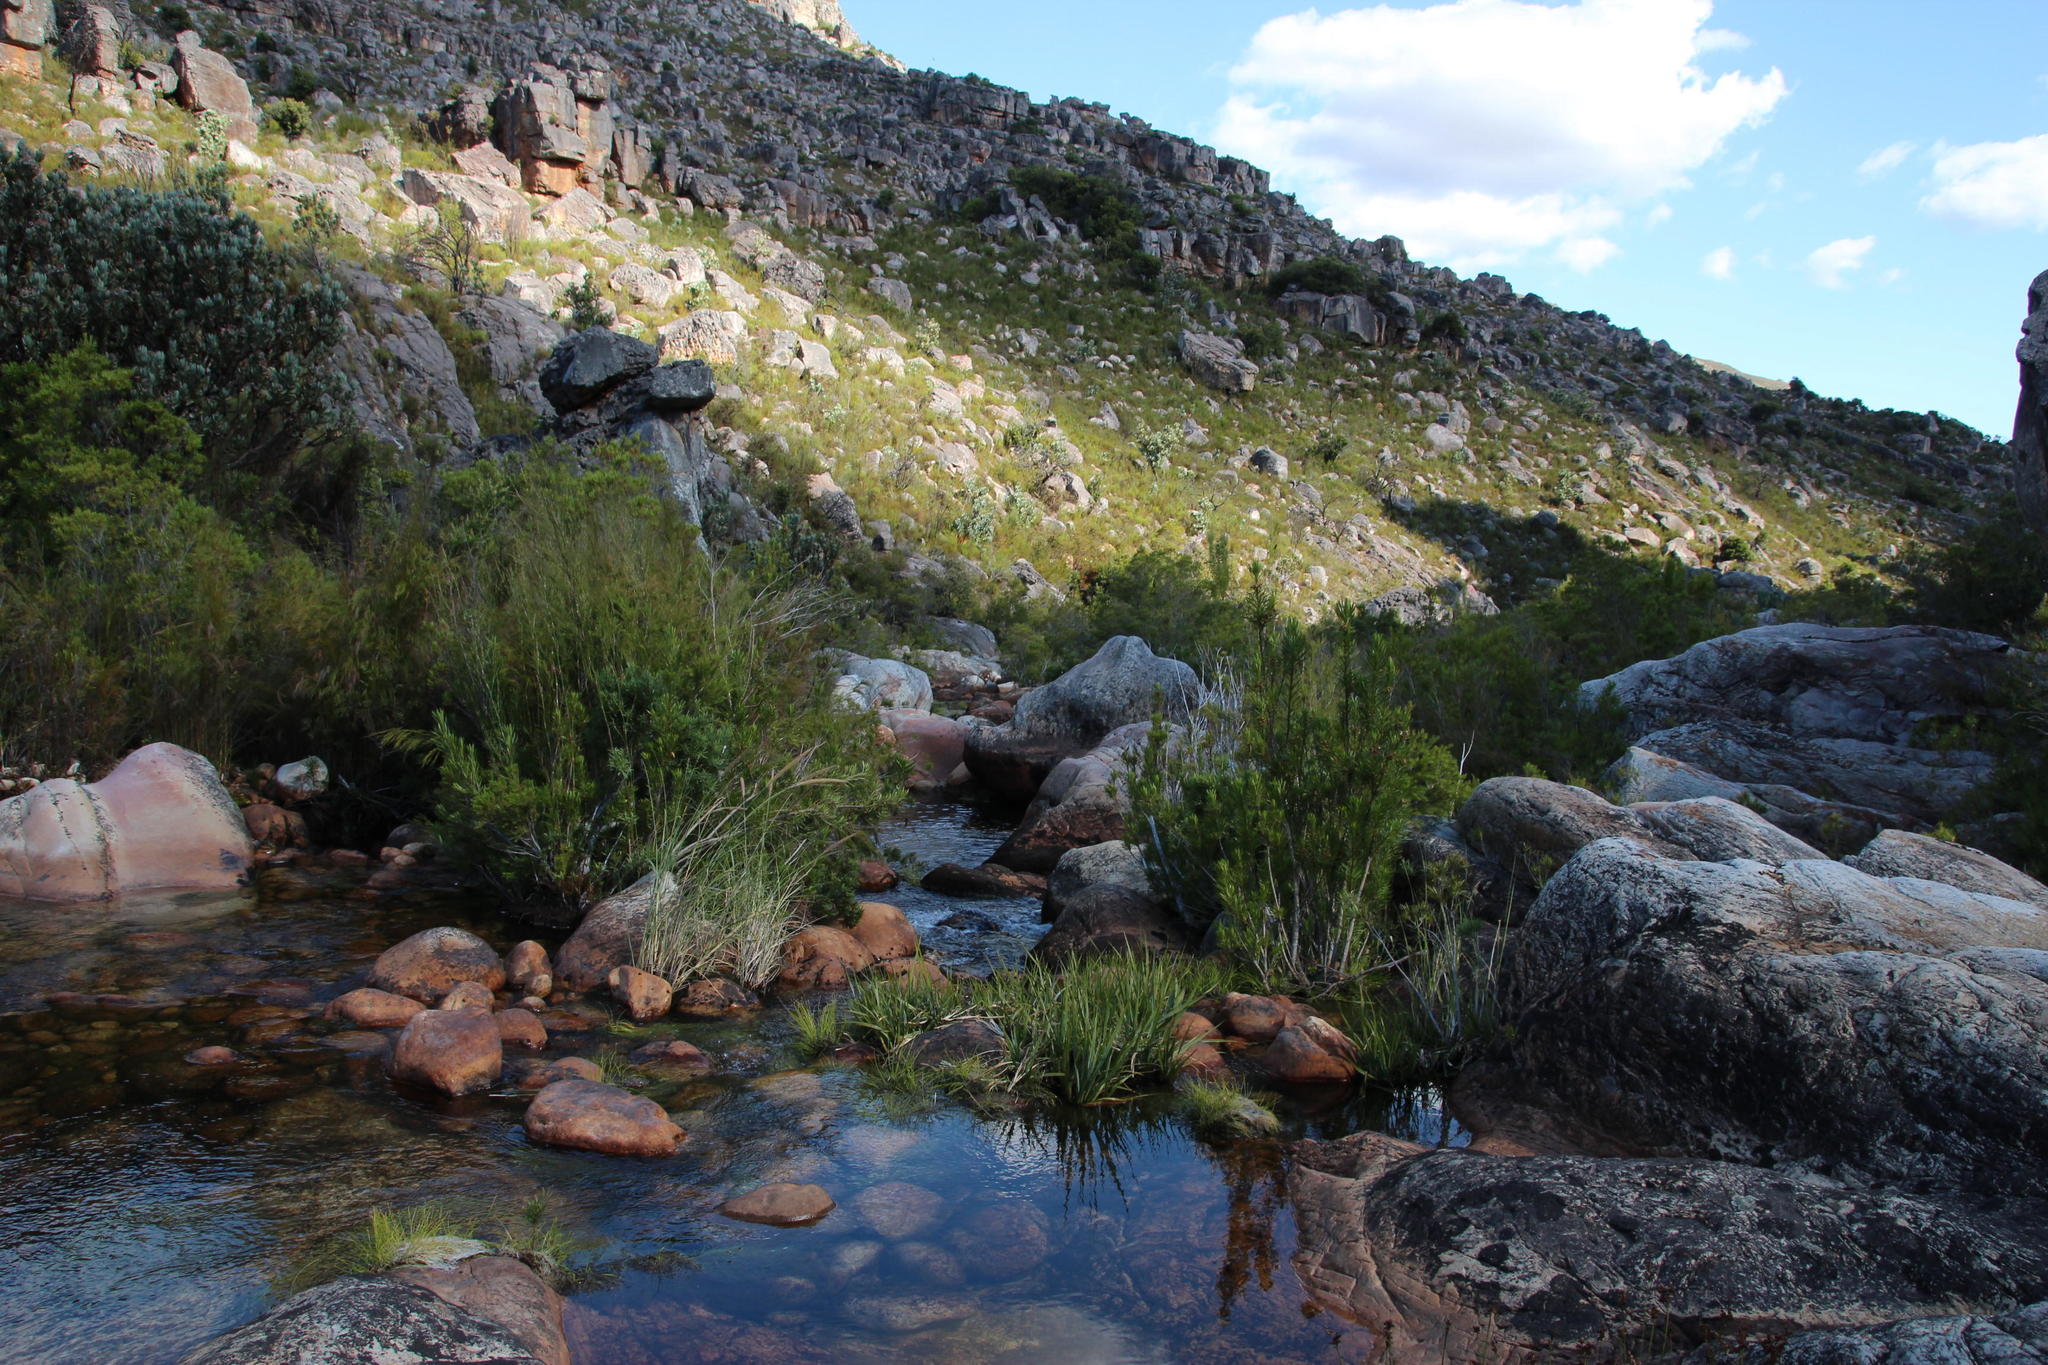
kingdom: Plantae
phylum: Tracheophyta
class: Liliopsida
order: Poales
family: Thurniaceae
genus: Prionium
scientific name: Prionium serratum
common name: Palmiet
